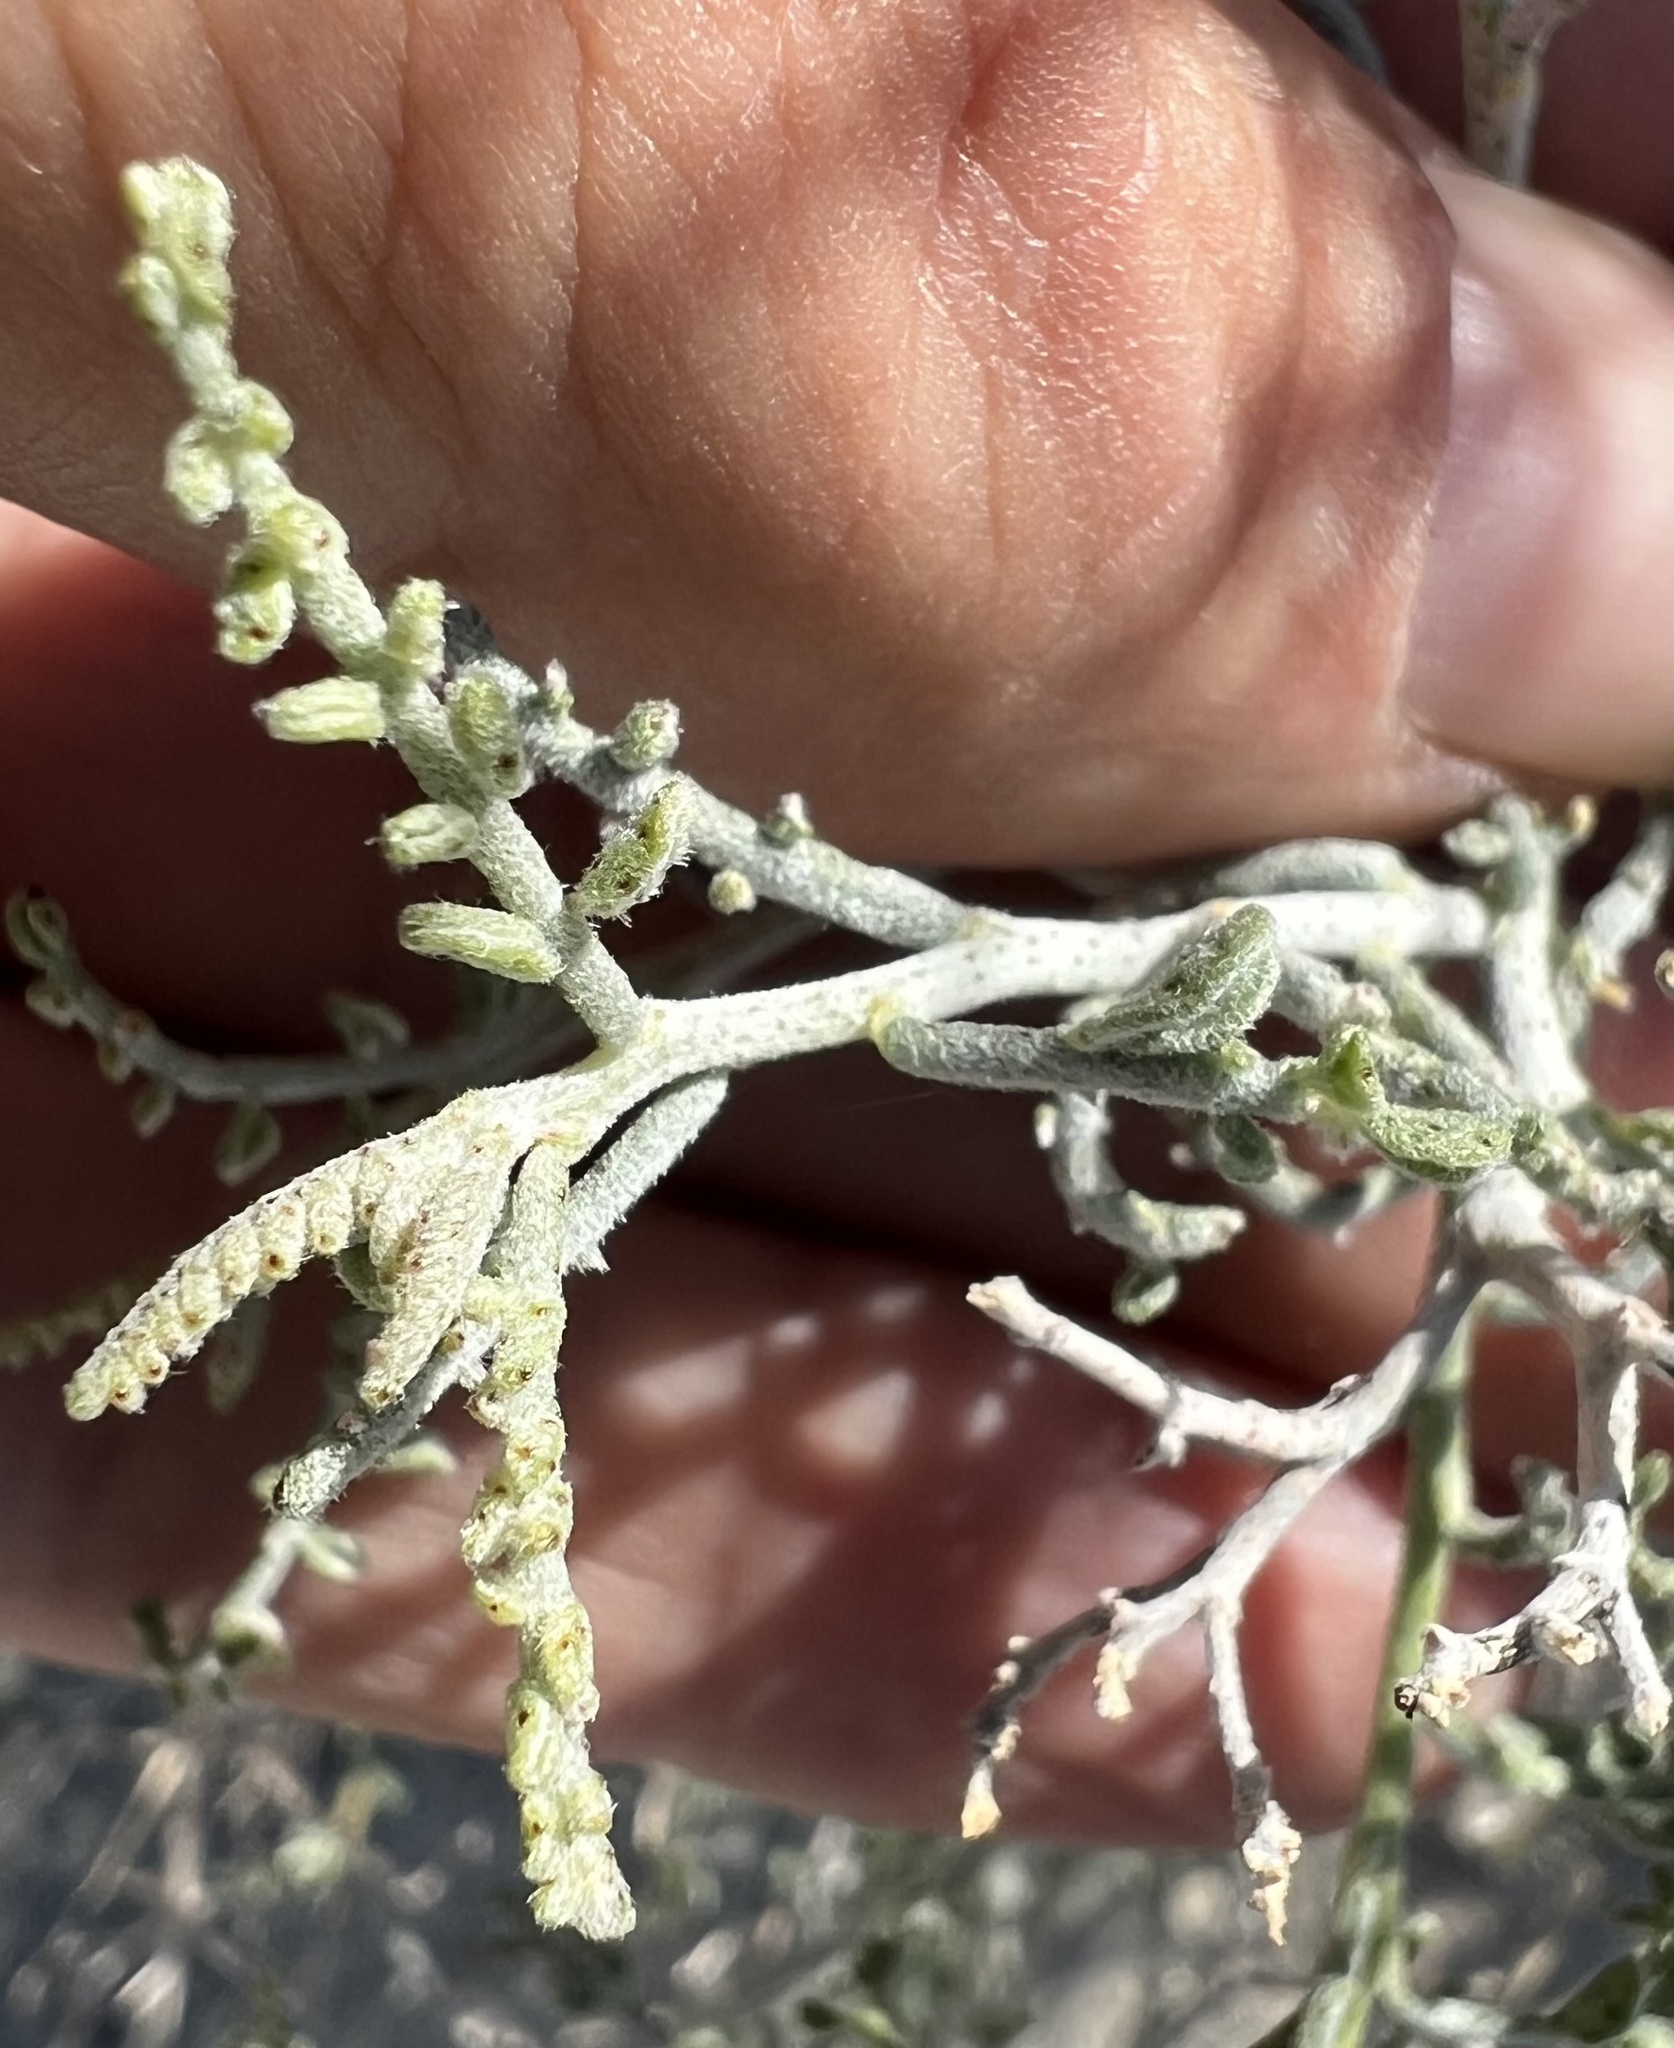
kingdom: Plantae
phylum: Tracheophyta
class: Magnoliopsida
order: Fabales
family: Fabaceae
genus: Psorothamnus
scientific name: Psorothamnus polydenius
